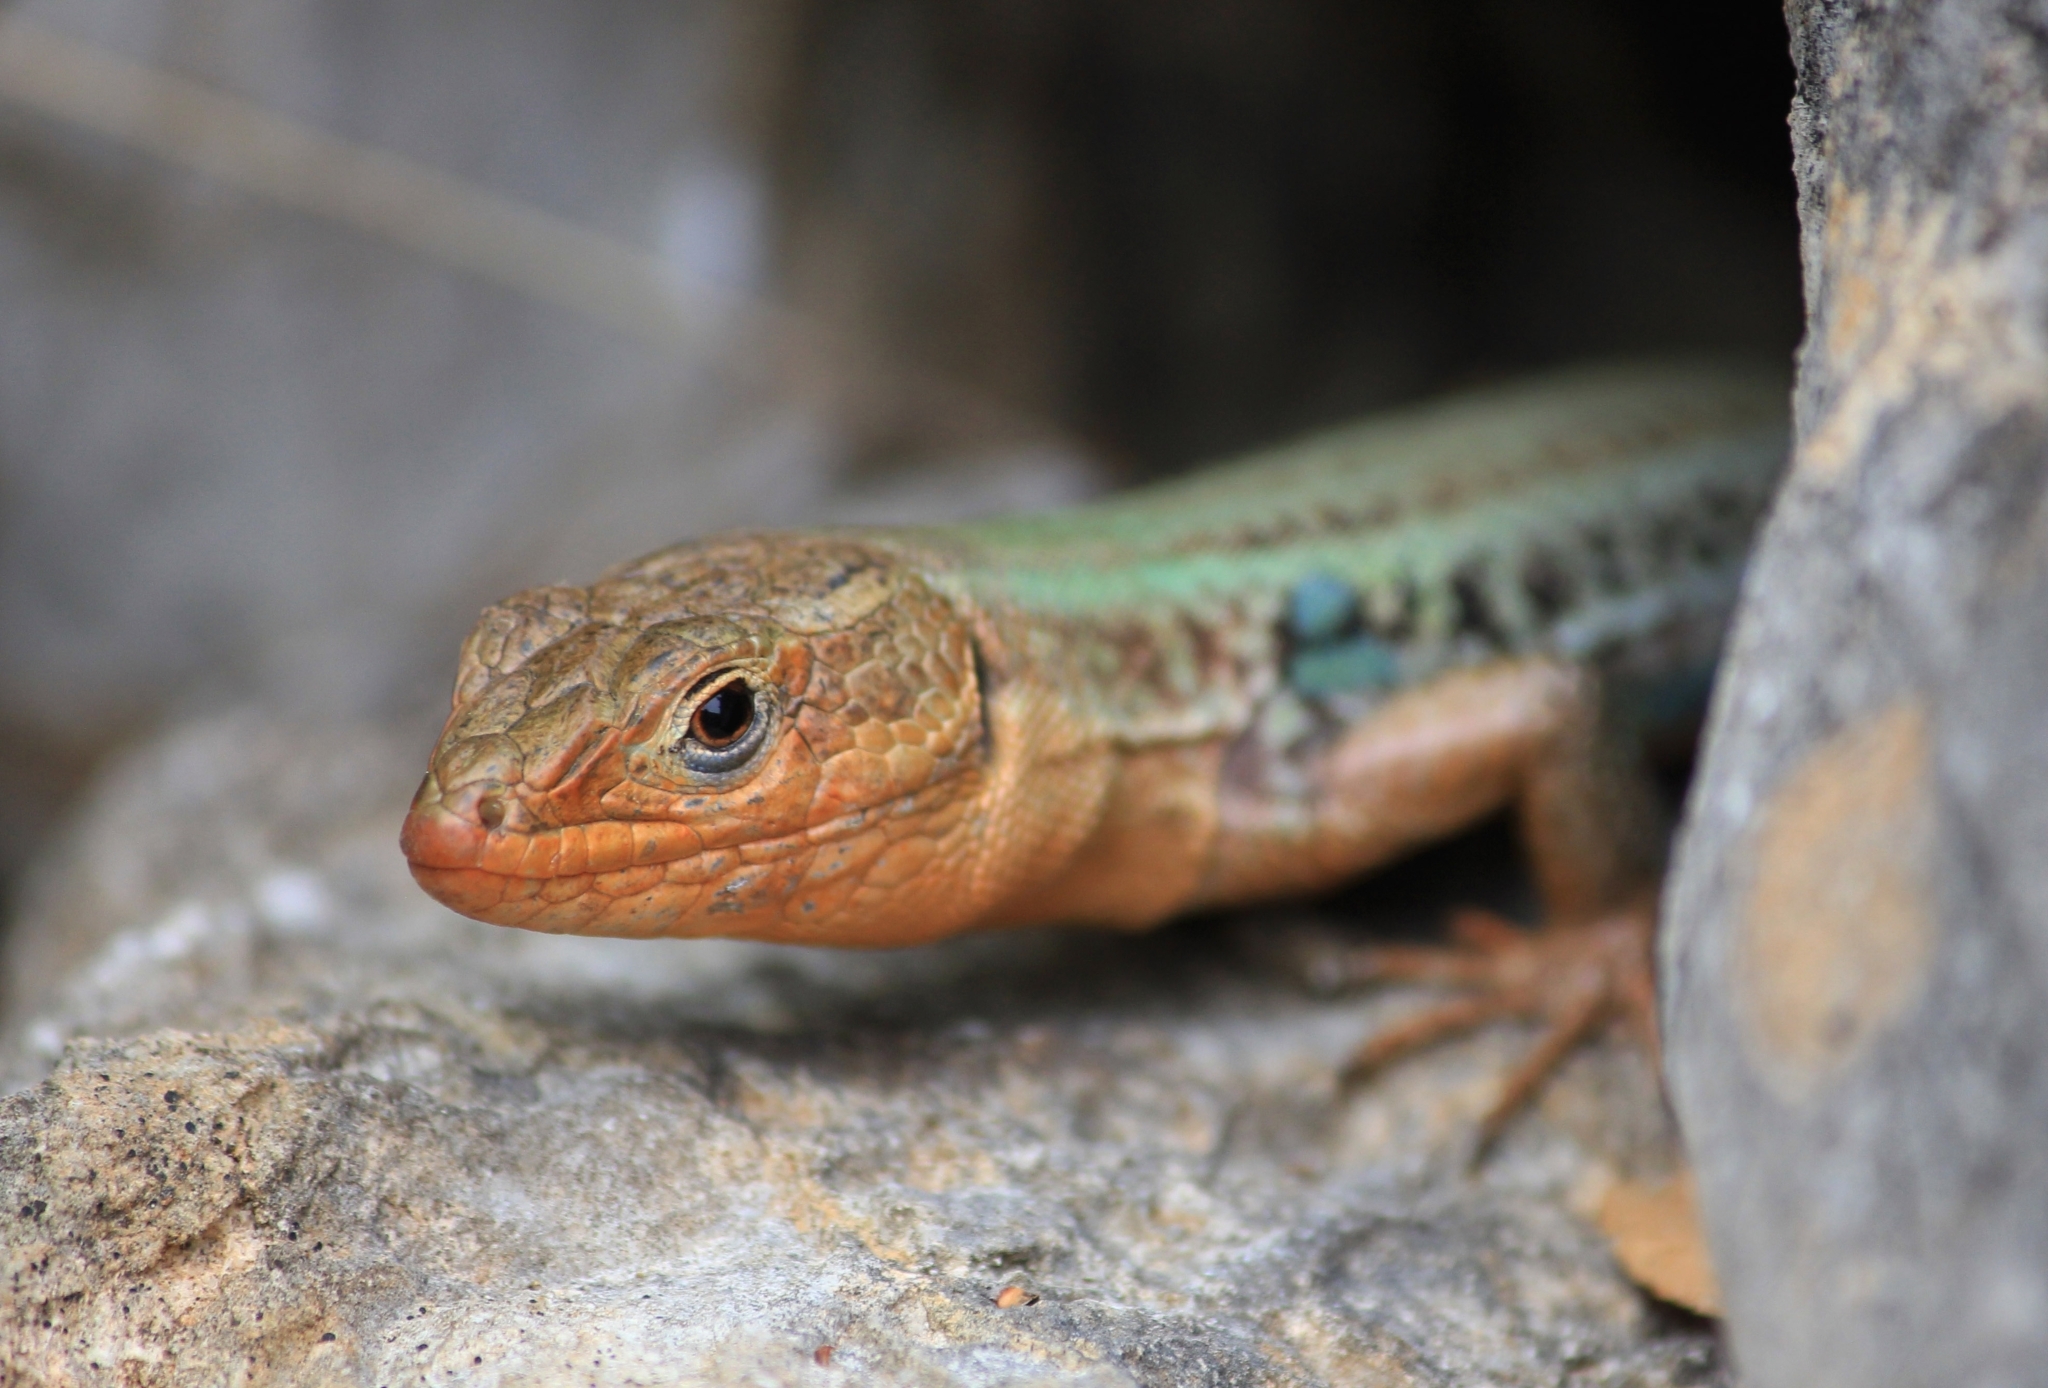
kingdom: Animalia
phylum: Chordata
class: Squamata
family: Lacertidae
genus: Podarcis
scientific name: Podarcis peloponnesiacus
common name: Peloponnese wall lizard
